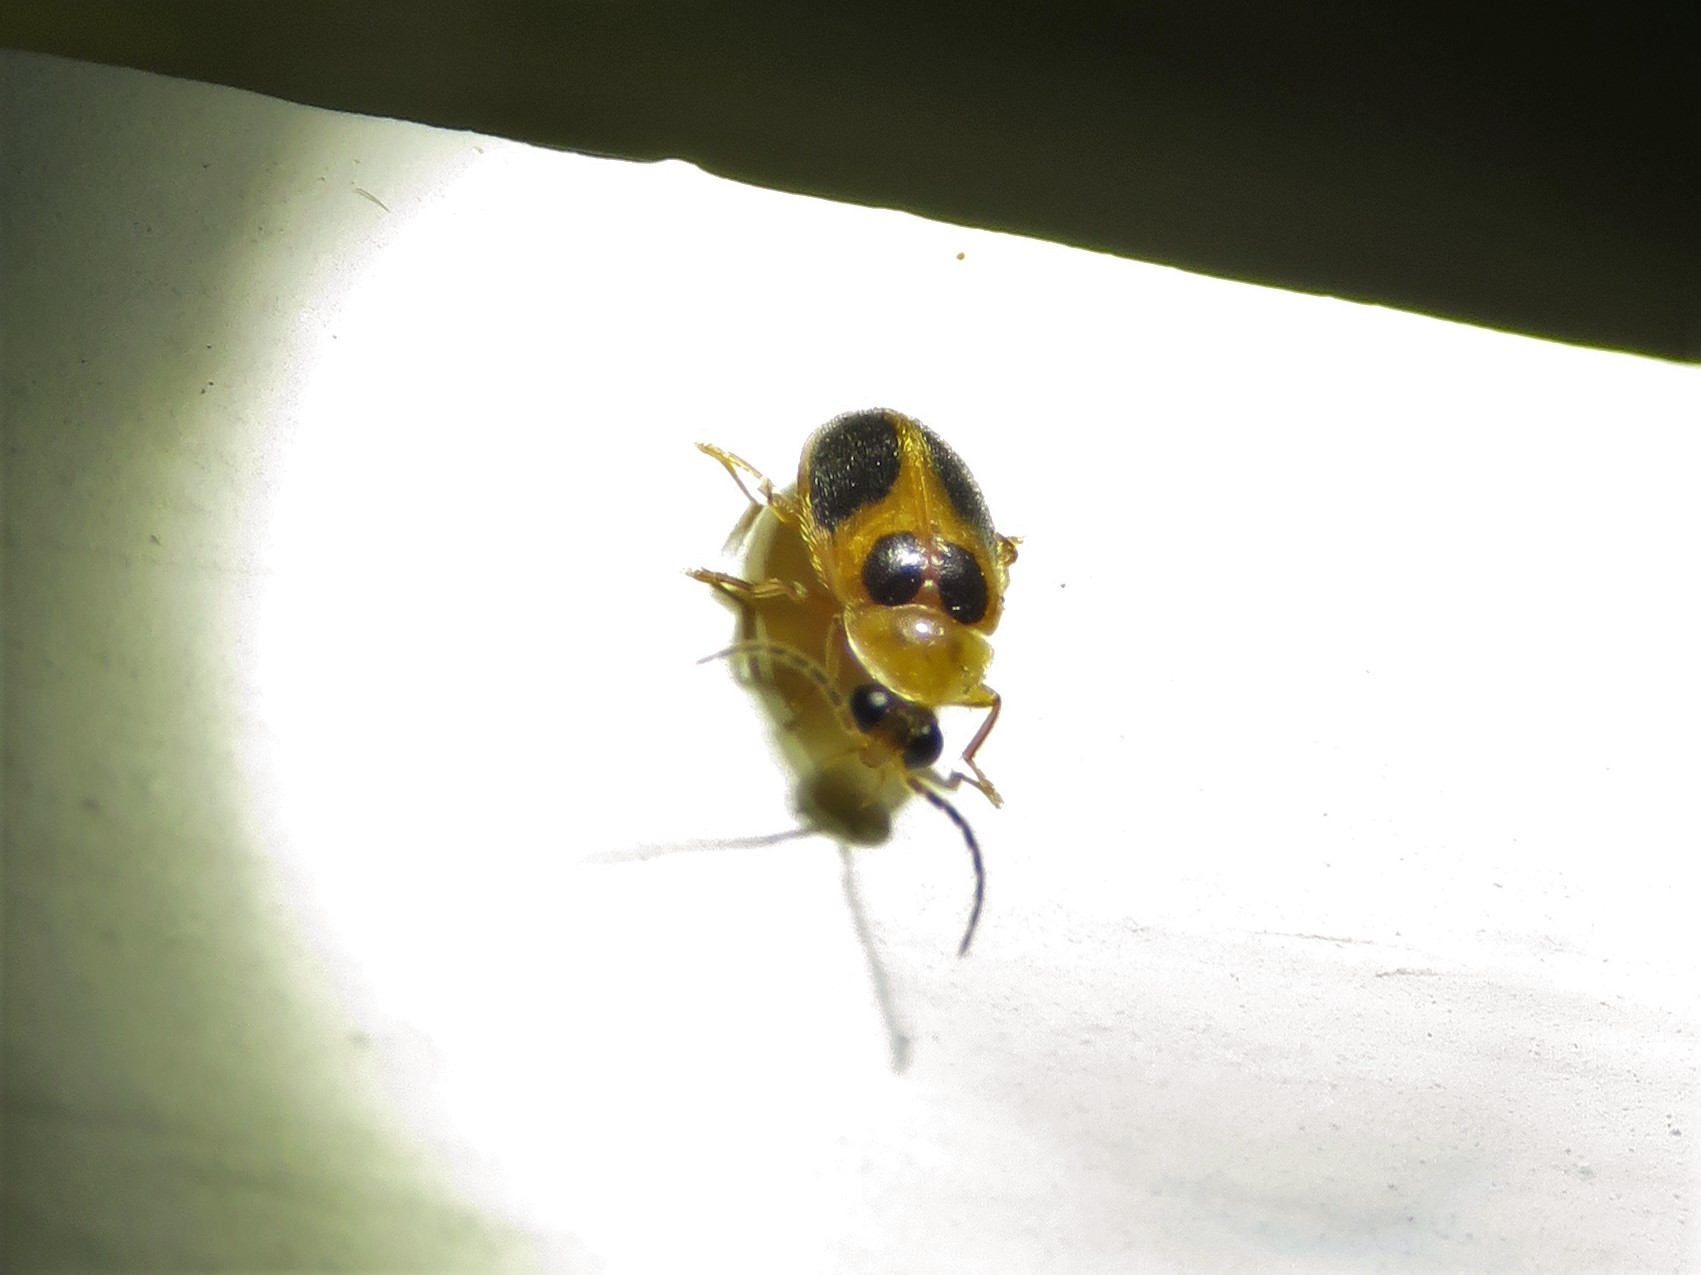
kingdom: Animalia
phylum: Arthropoda
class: Insecta
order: Coleoptera
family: Scirtidae
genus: Sacodes
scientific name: Sacodes pulchella
